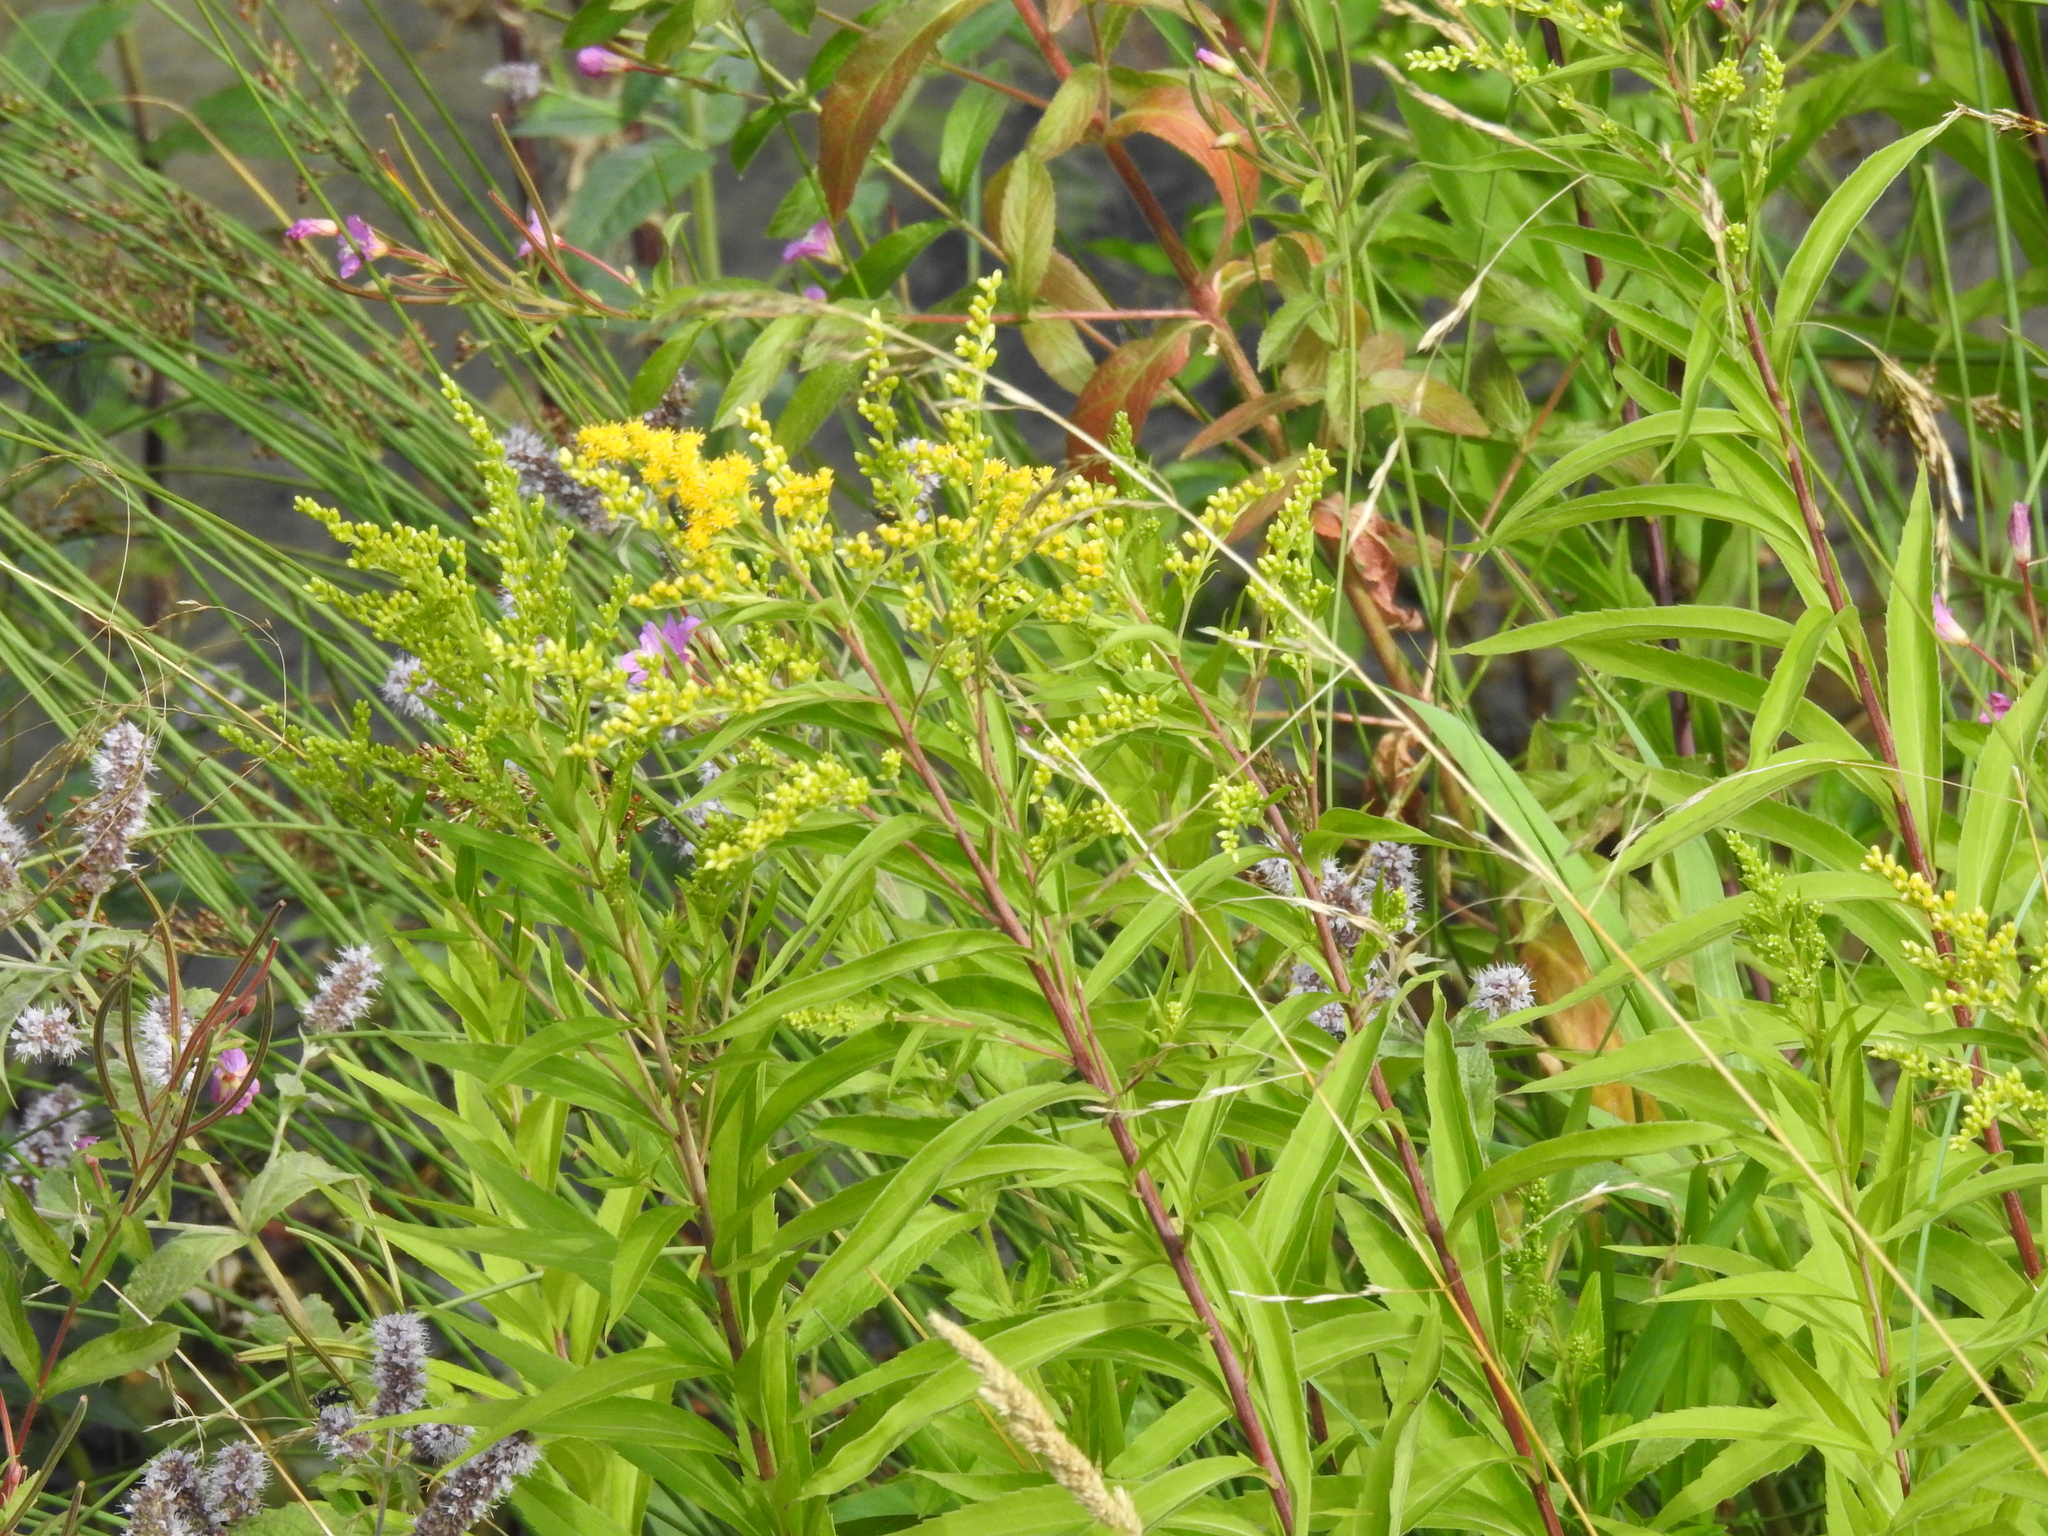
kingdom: Plantae
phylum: Tracheophyta
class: Magnoliopsida
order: Asterales
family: Asteraceae
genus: Solidago
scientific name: Solidago gigantea
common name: Giant goldenrod
